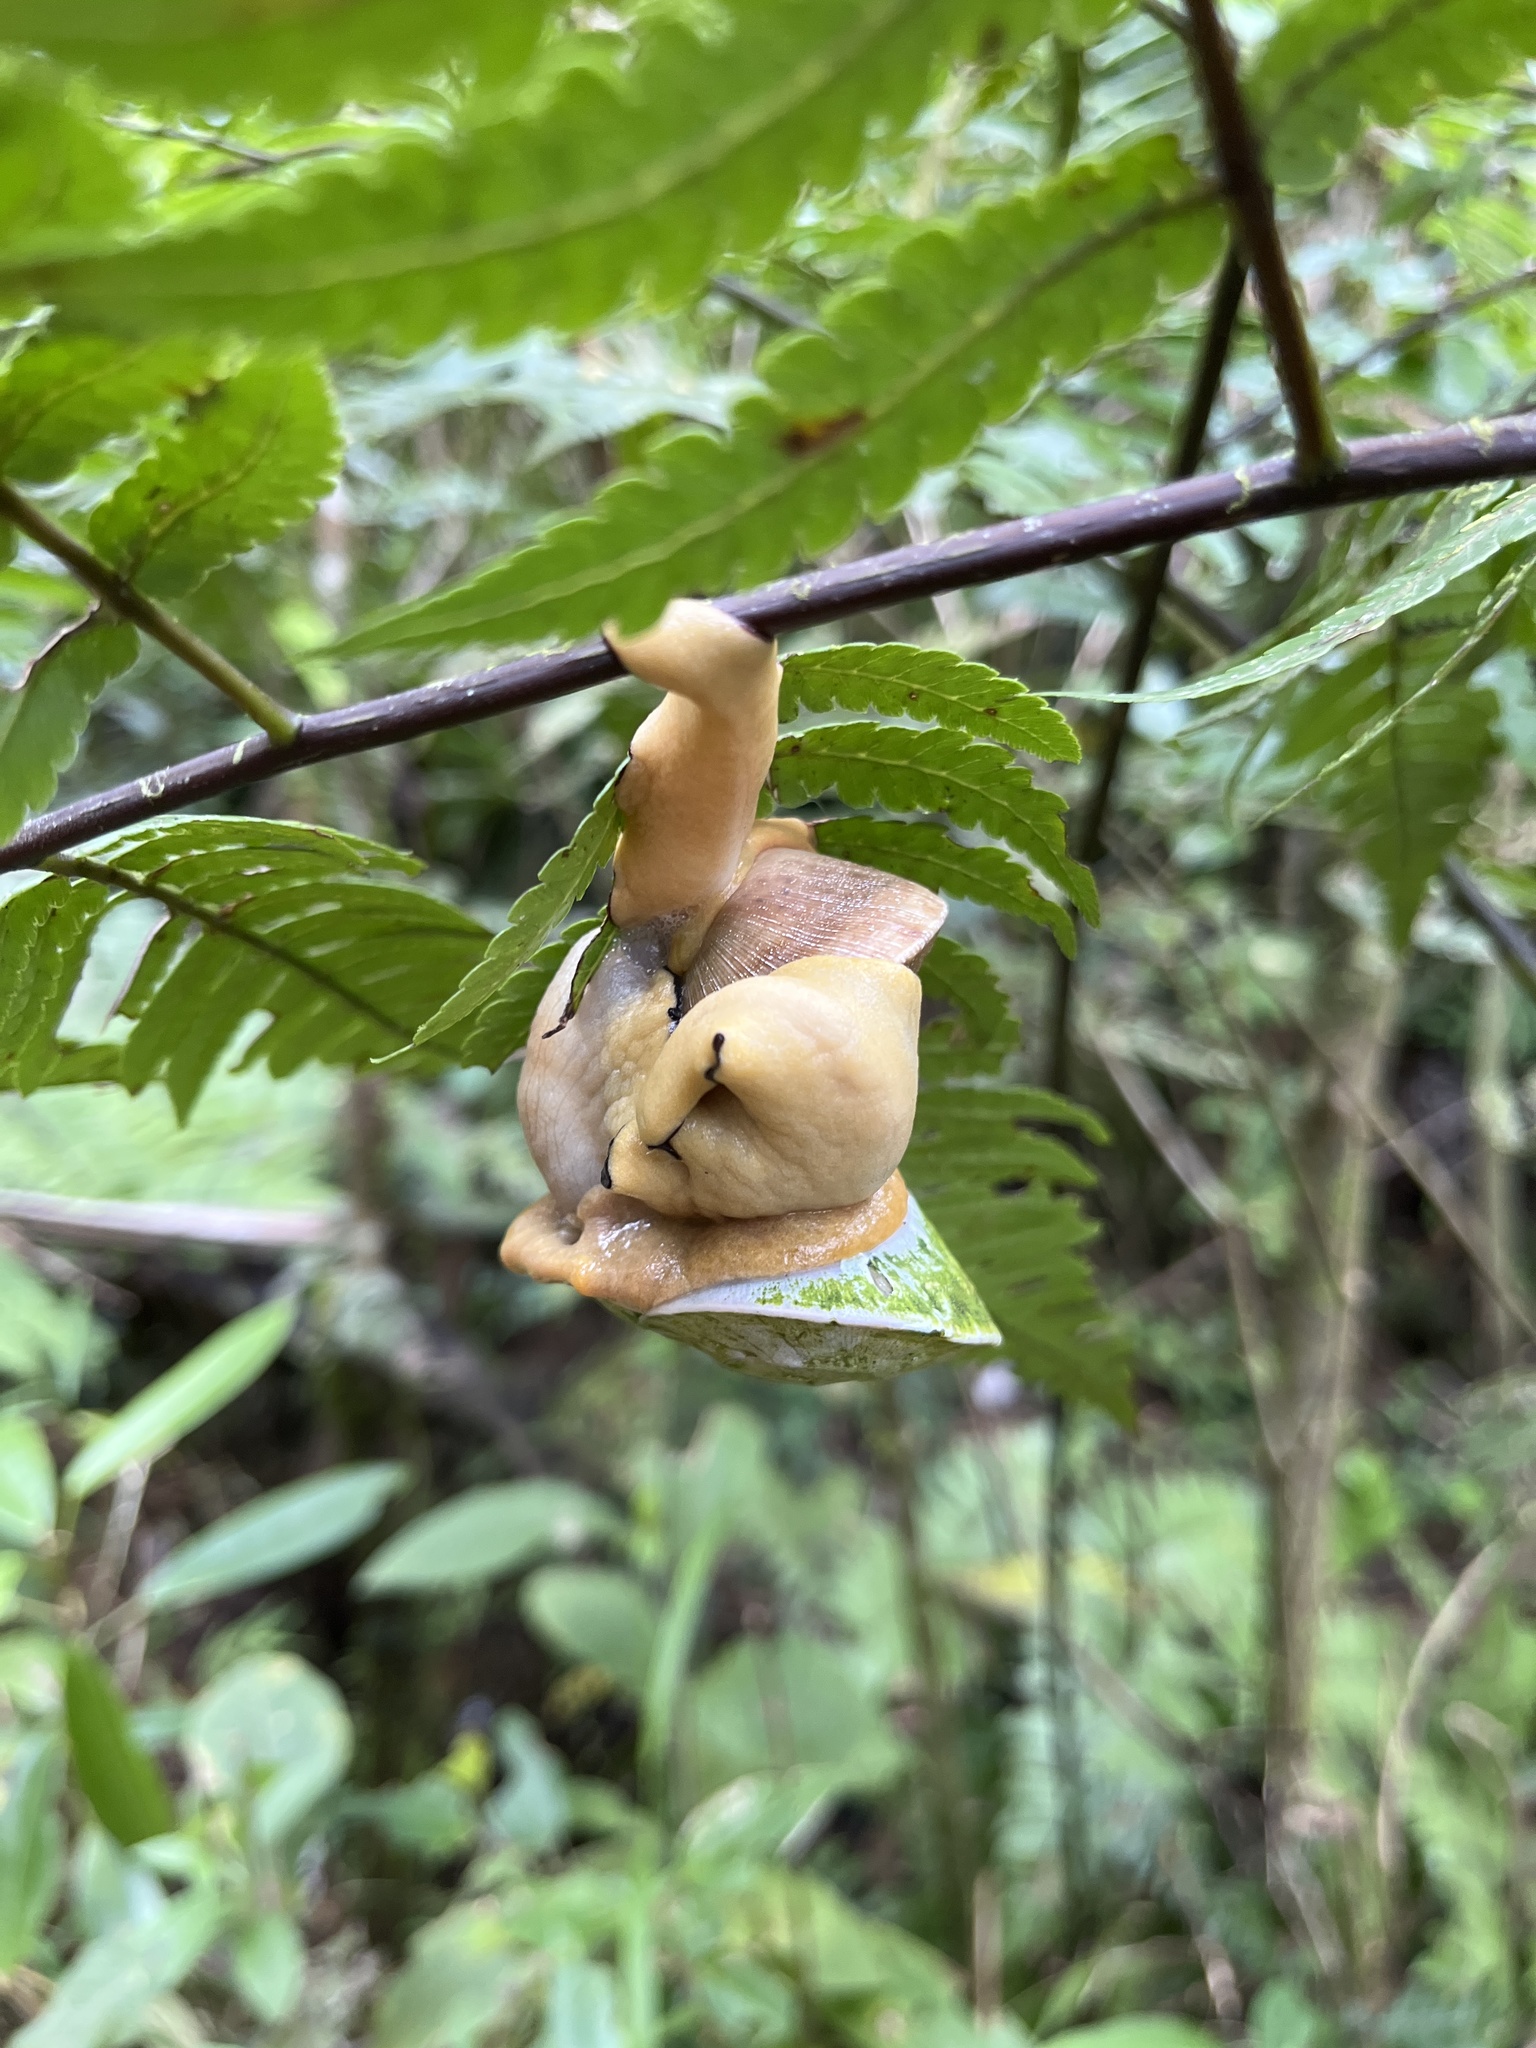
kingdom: Animalia
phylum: Mollusca
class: Gastropoda
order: Stylommatophora
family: Sagdidae
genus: Parthena
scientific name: Parthena acutangula
